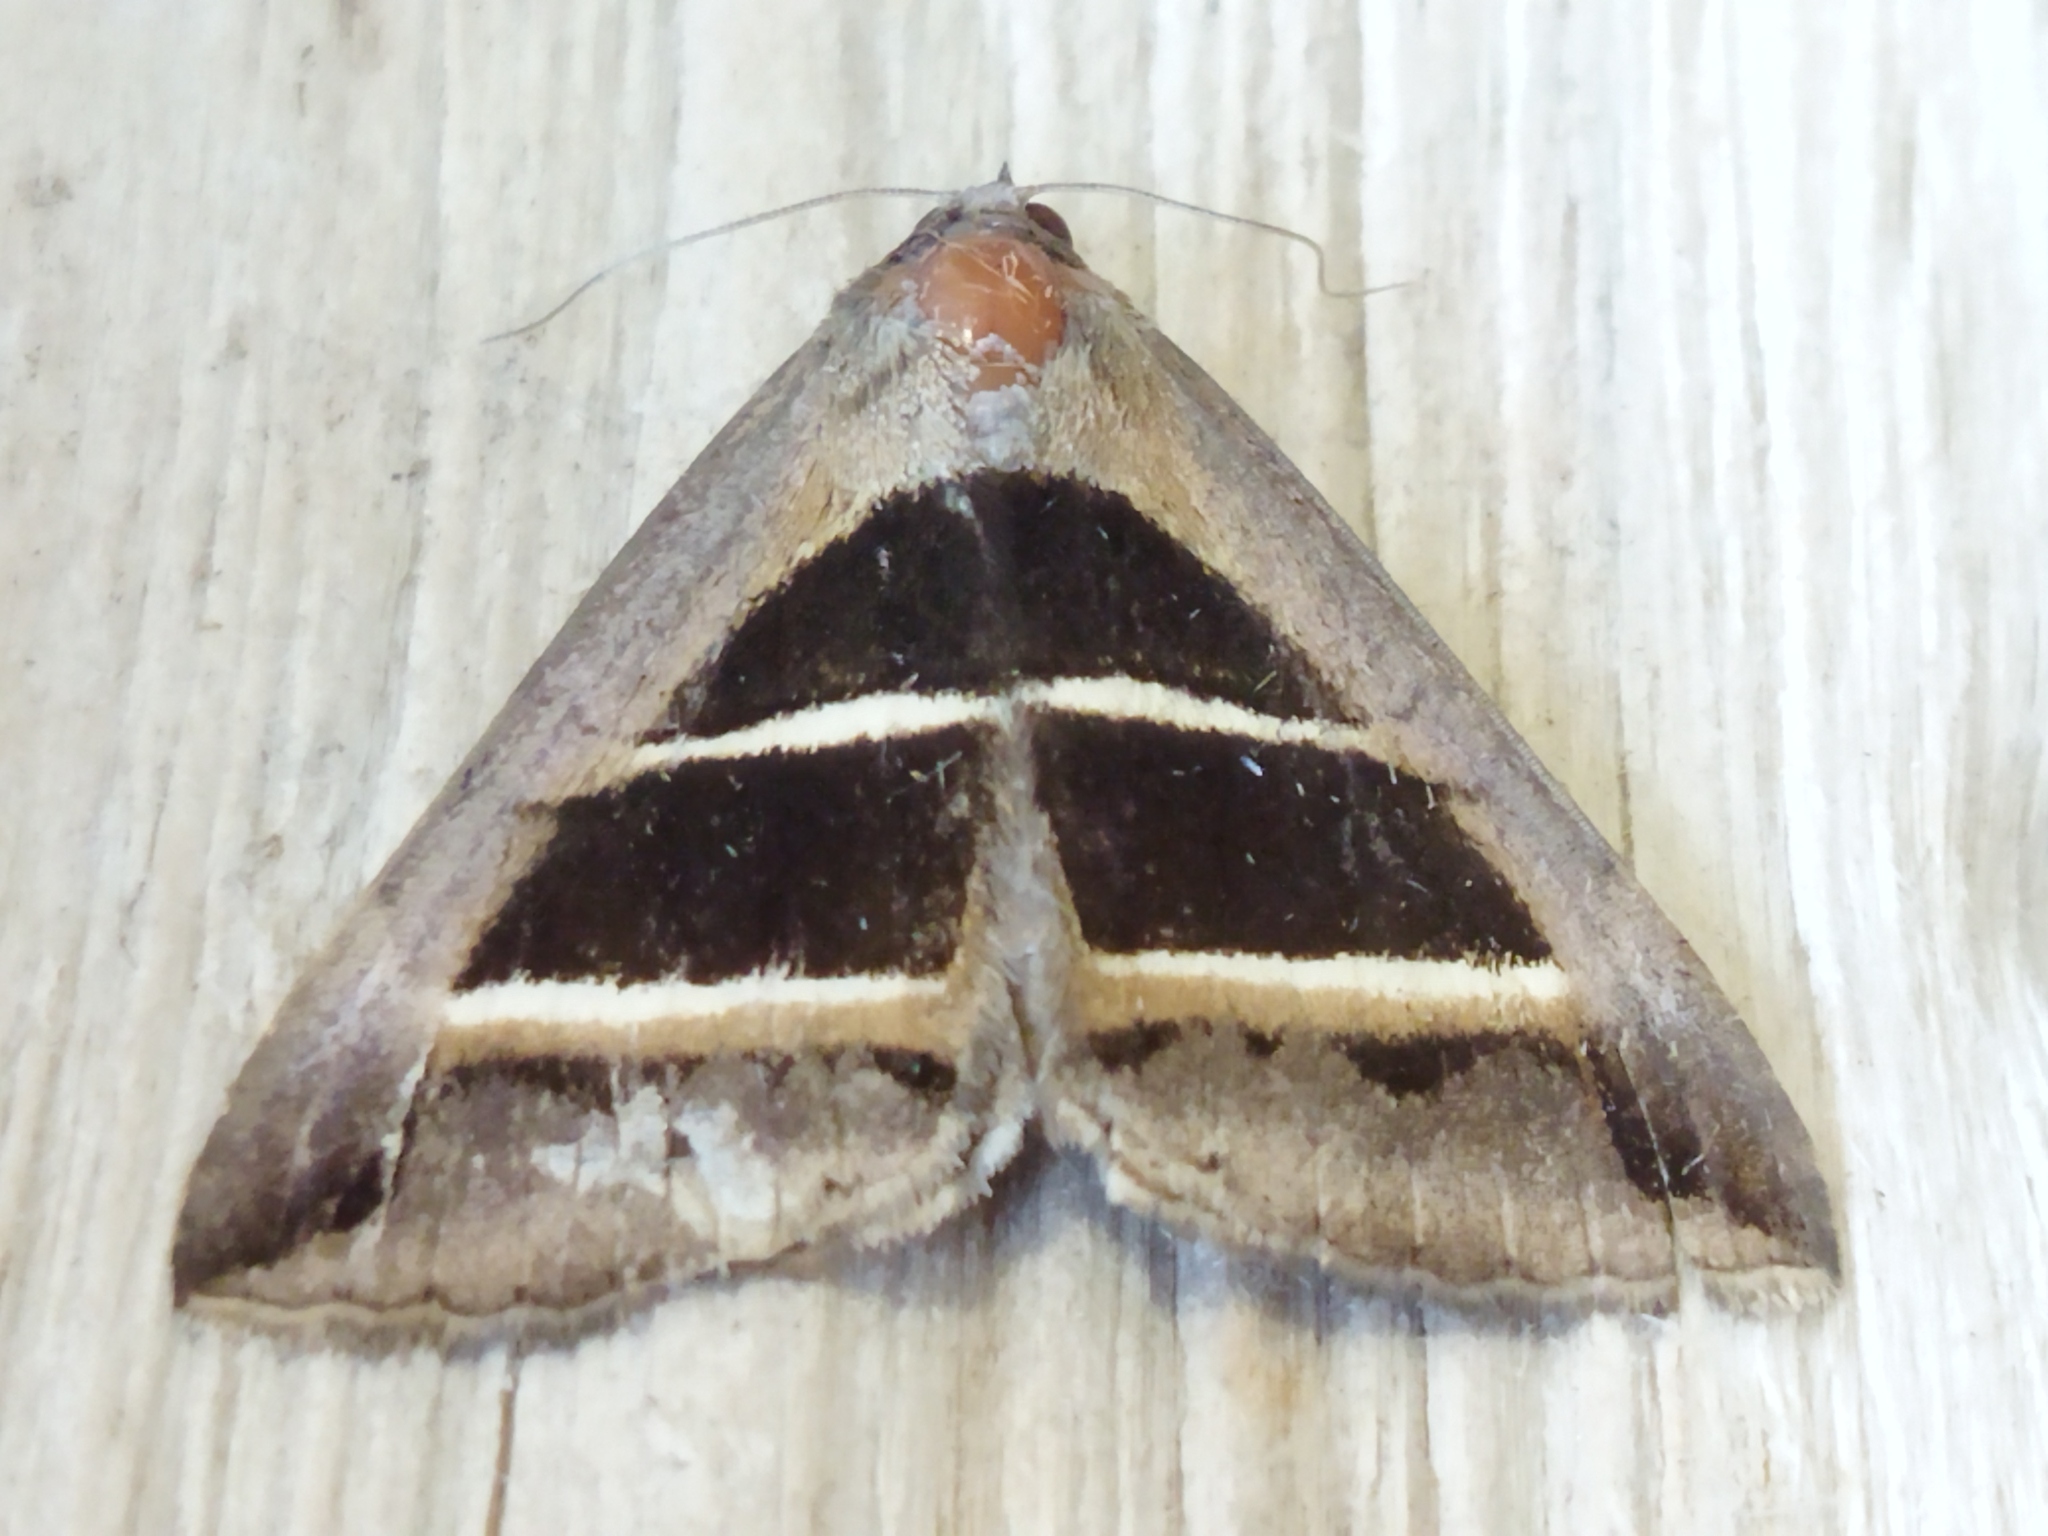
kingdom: Animalia
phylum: Arthropoda
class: Insecta
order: Lepidoptera
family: Erebidae
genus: Grammodes
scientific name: Grammodes bifasciata
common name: Parallel lines
